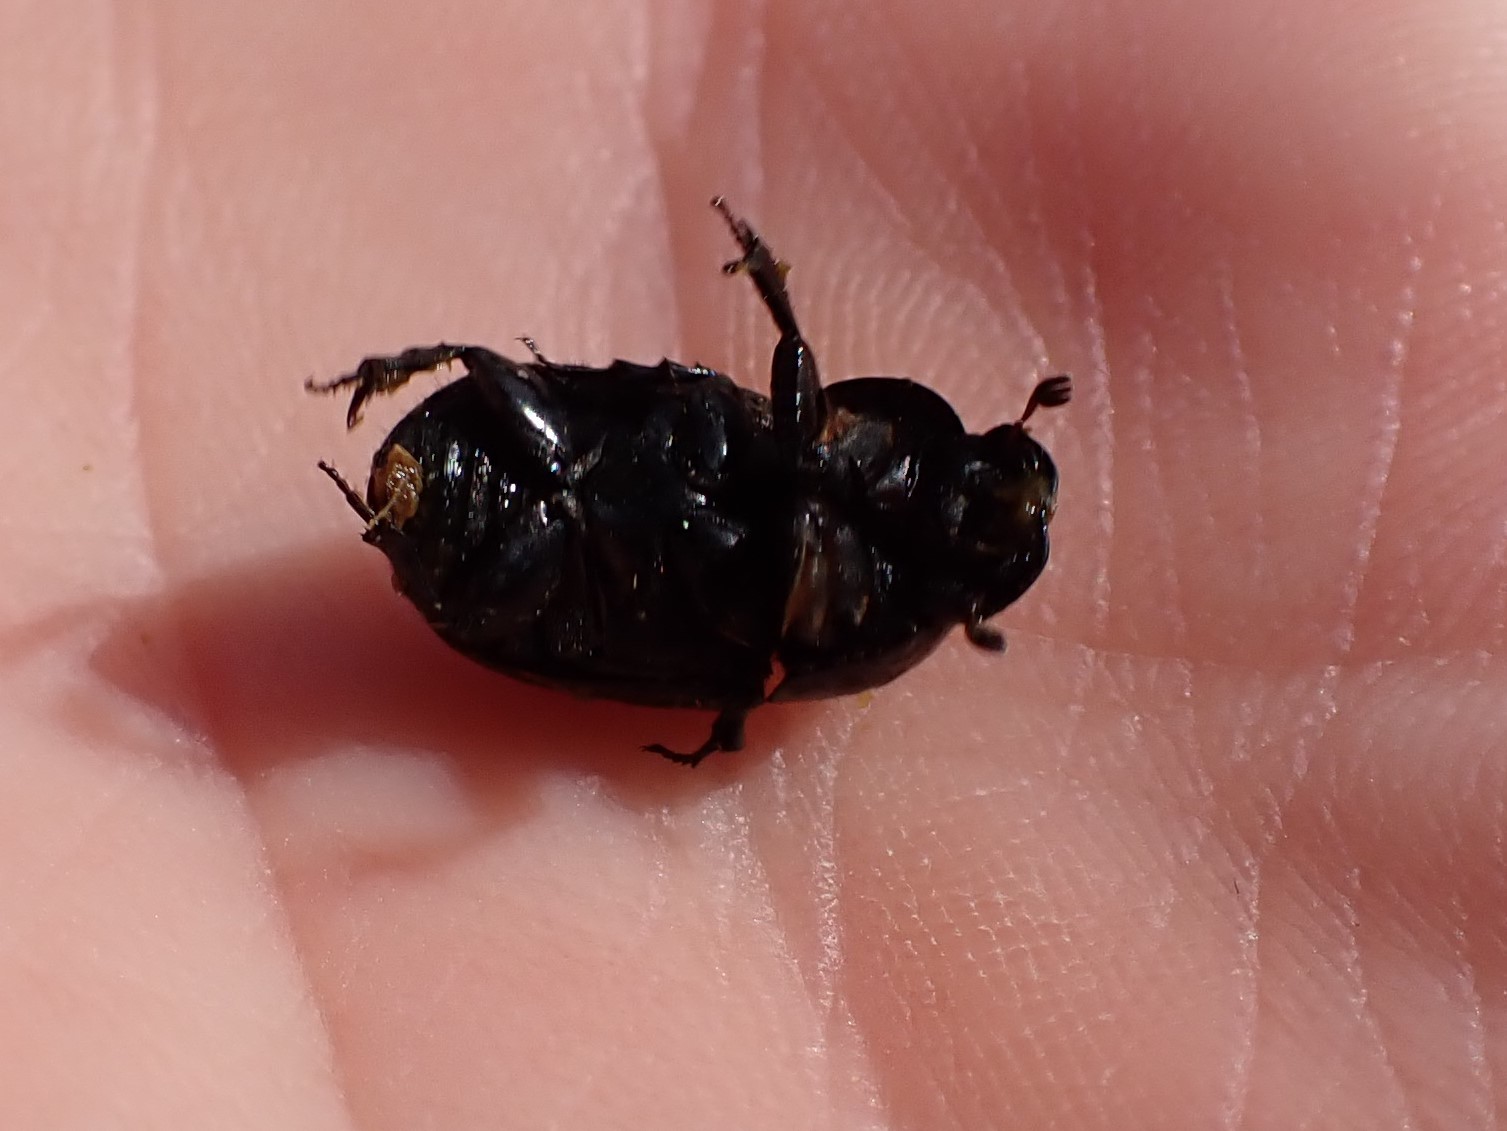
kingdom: Animalia
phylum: Arthropoda
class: Insecta
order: Coleoptera
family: Scarabaeidae
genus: Teuchestes
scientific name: Teuchestes fossor
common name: Digger small dung beetle
